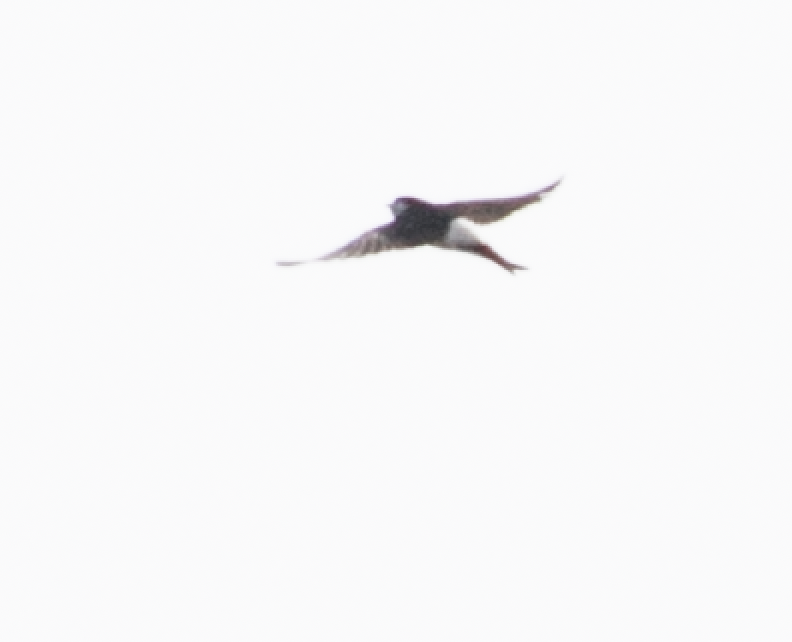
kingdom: Animalia
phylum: Chordata
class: Aves
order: Passeriformes
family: Hirundinidae
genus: Delichon
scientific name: Delichon urbicum
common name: Common house martin
